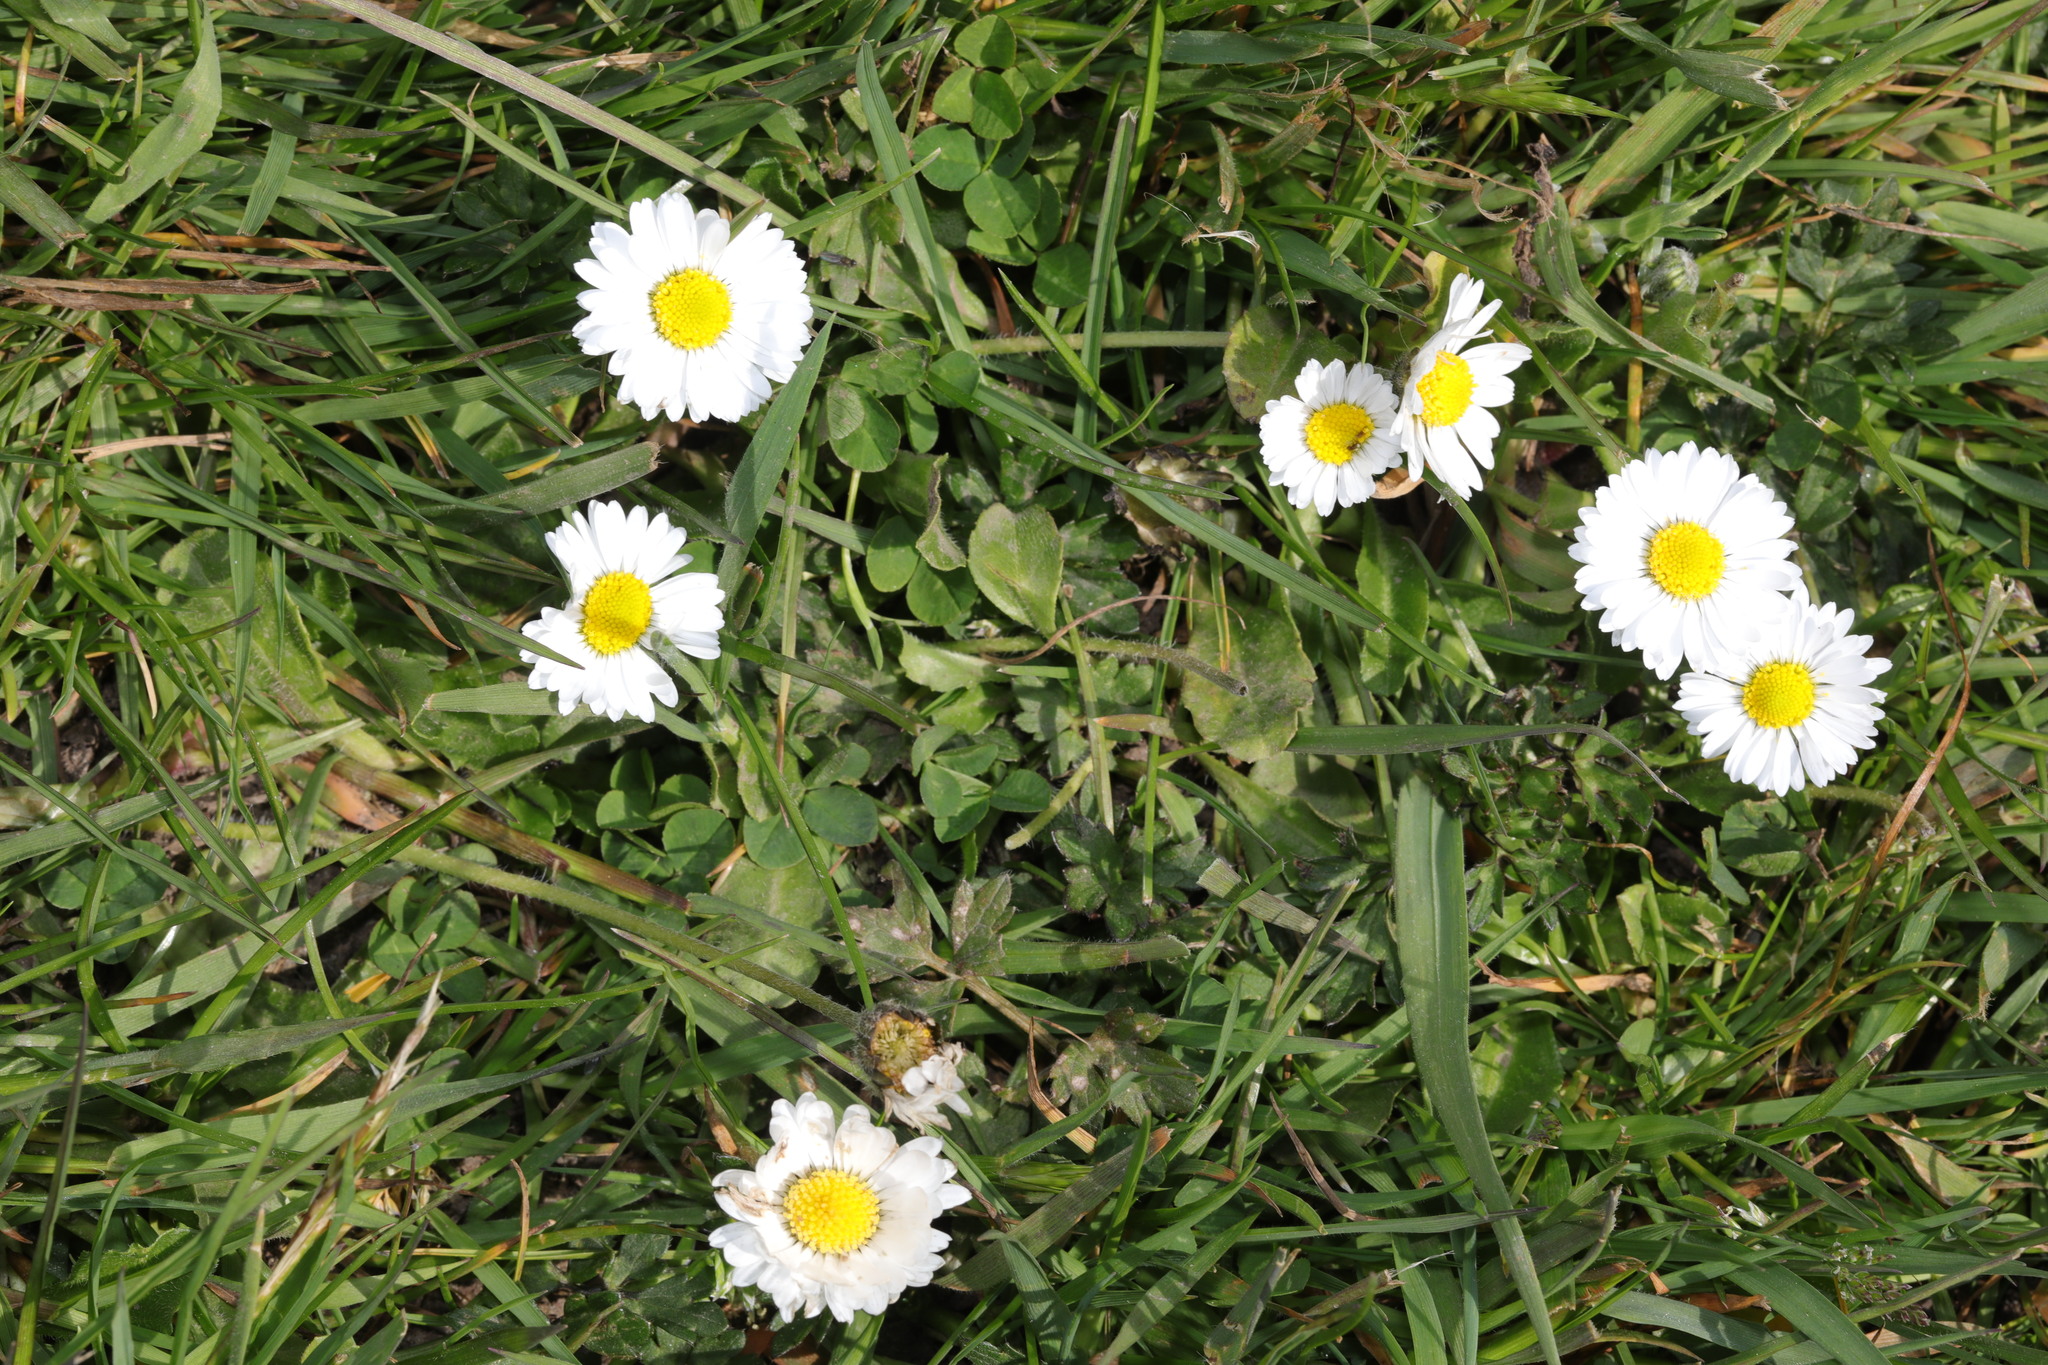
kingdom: Plantae
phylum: Tracheophyta
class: Magnoliopsida
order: Asterales
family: Asteraceae
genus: Bellis
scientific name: Bellis perennis
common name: Lawndaisy
